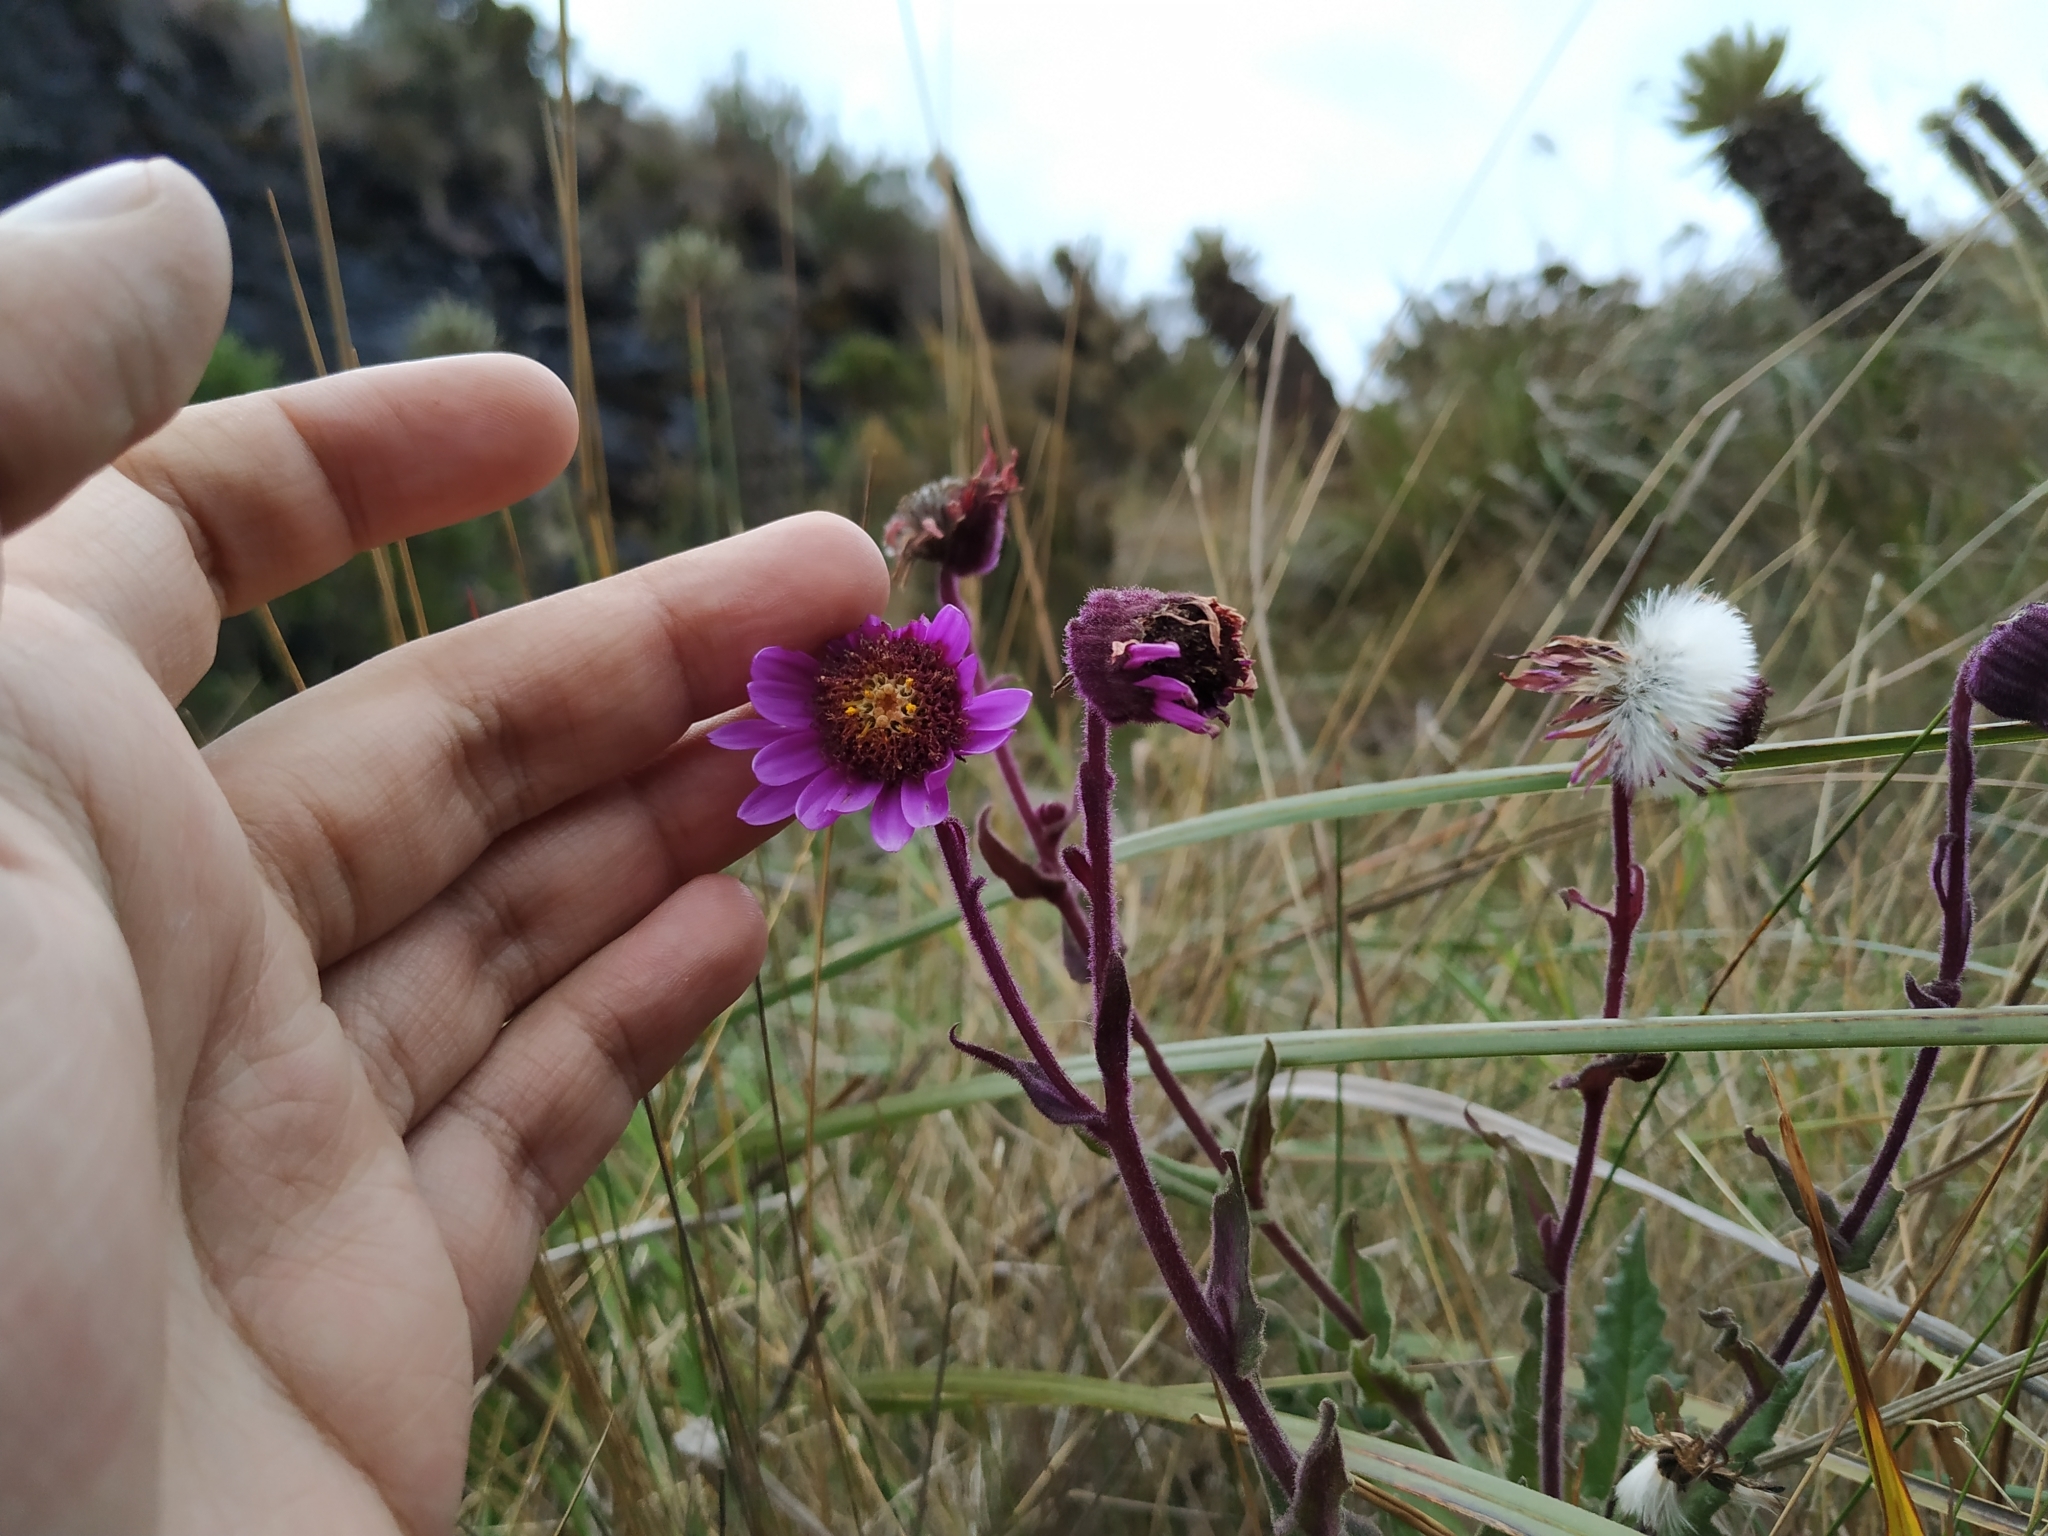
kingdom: Plantae
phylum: Tracheophyta
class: Magnoliopsida
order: Asterales
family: Asteraceae
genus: Senecio
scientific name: Senecio formosus
